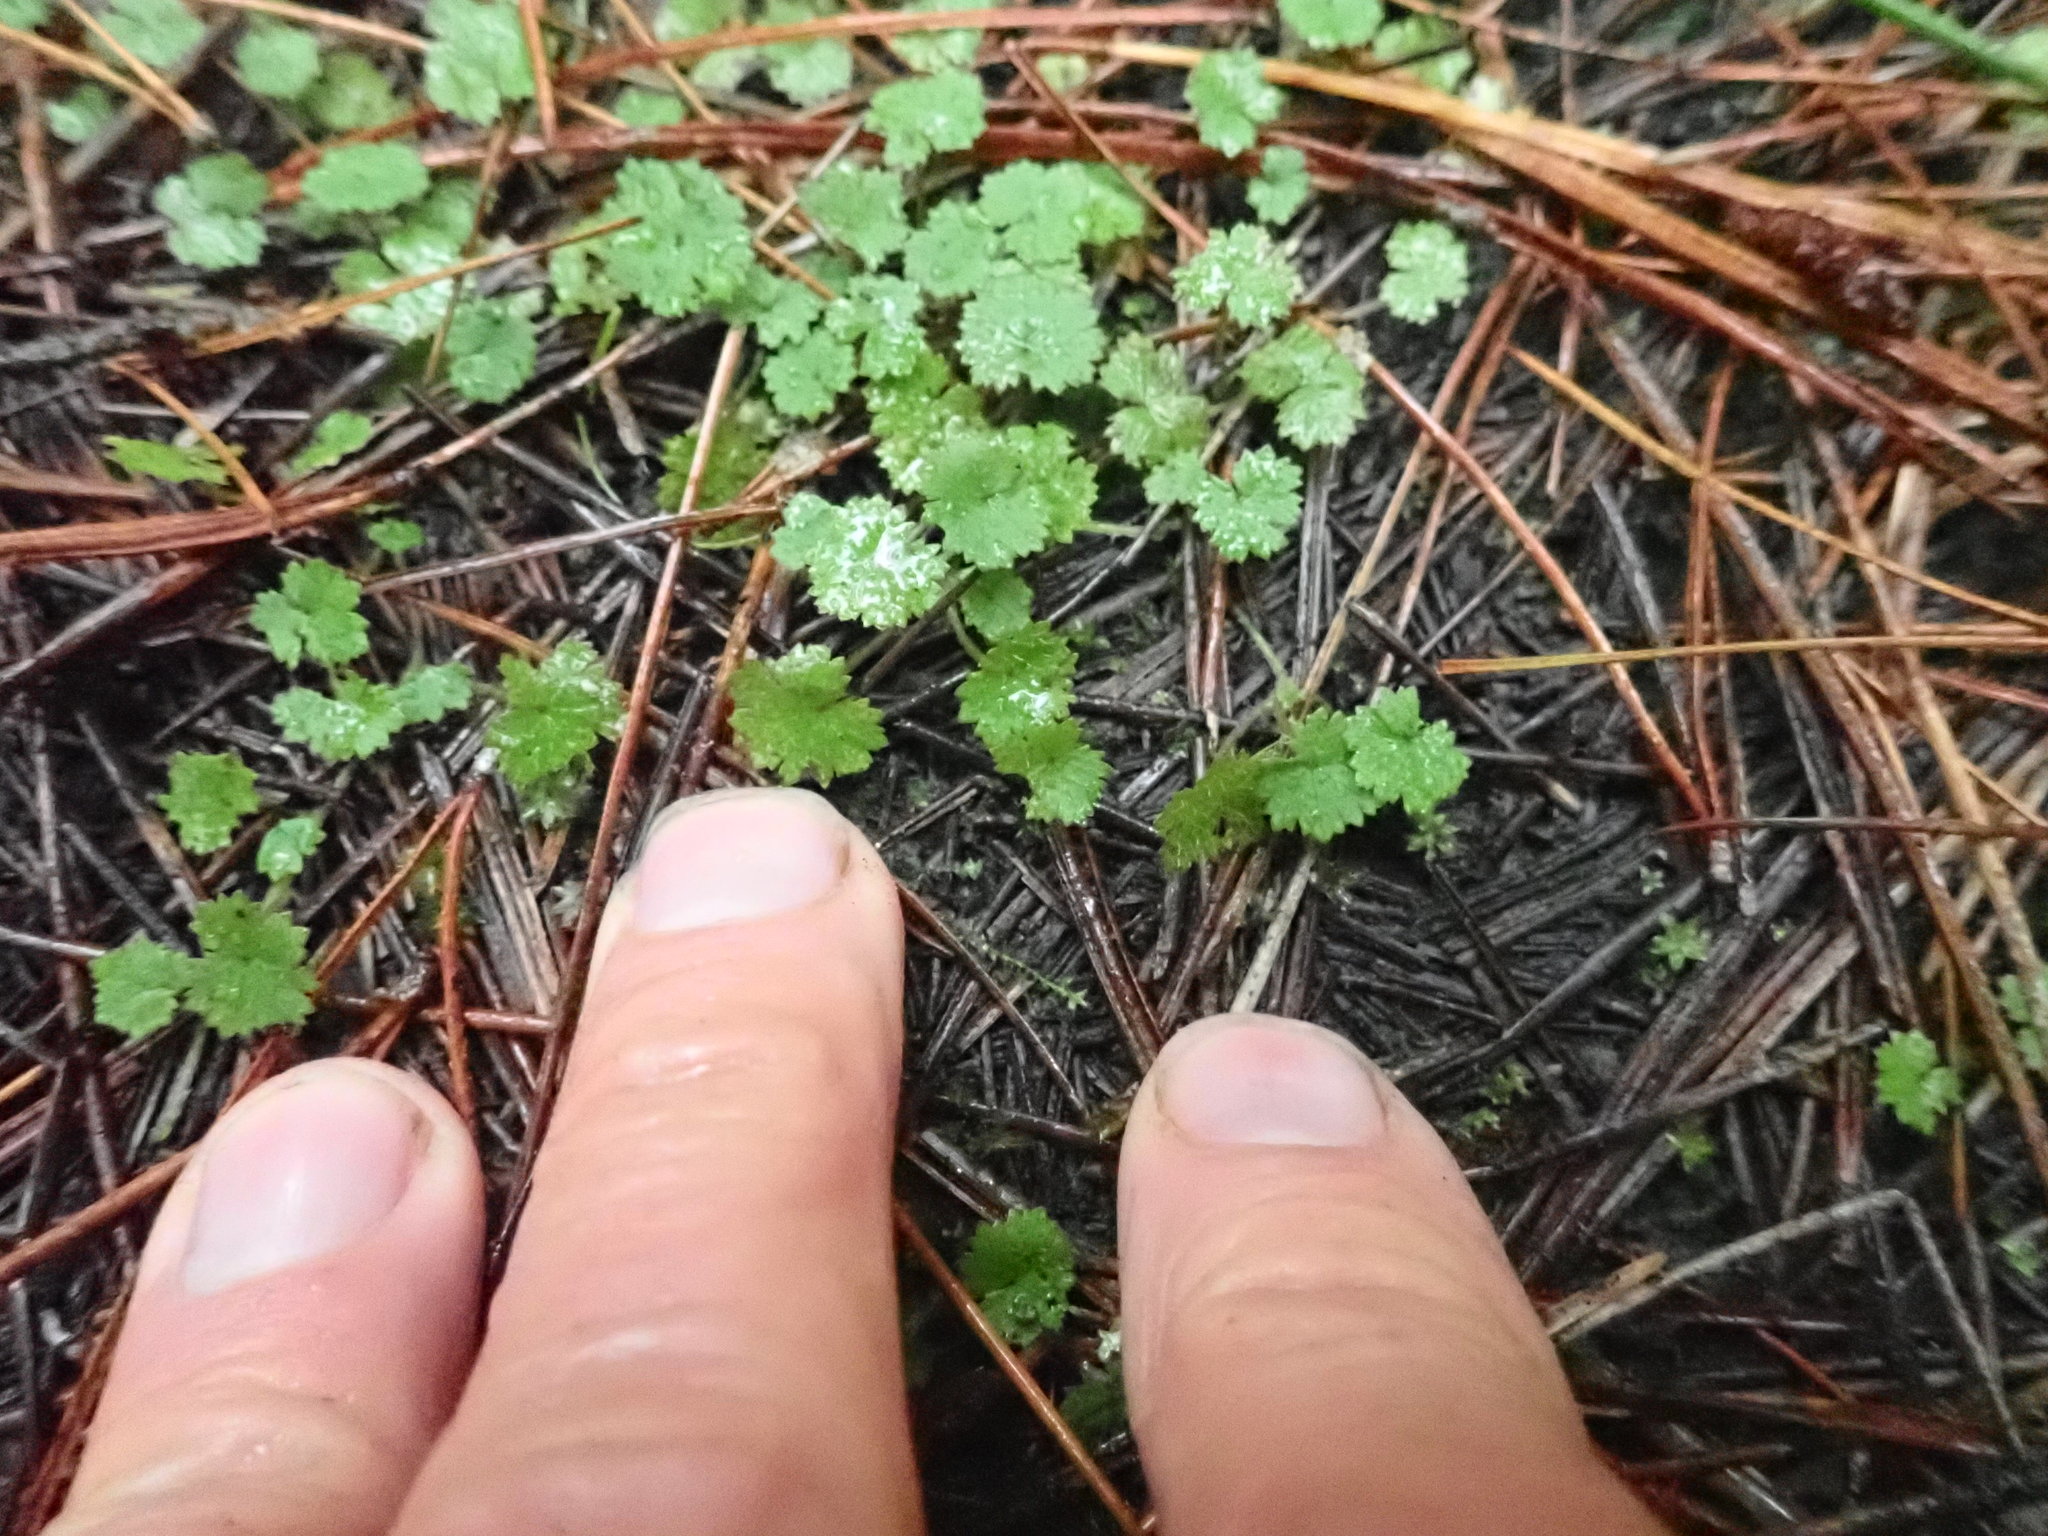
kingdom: Plantae
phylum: Tracheophyta
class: Magnoliopsida
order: Apiales
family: Araliaceae
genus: Hydrocotyle
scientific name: Hydrocotyle moschata
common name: Hairy pennywort
